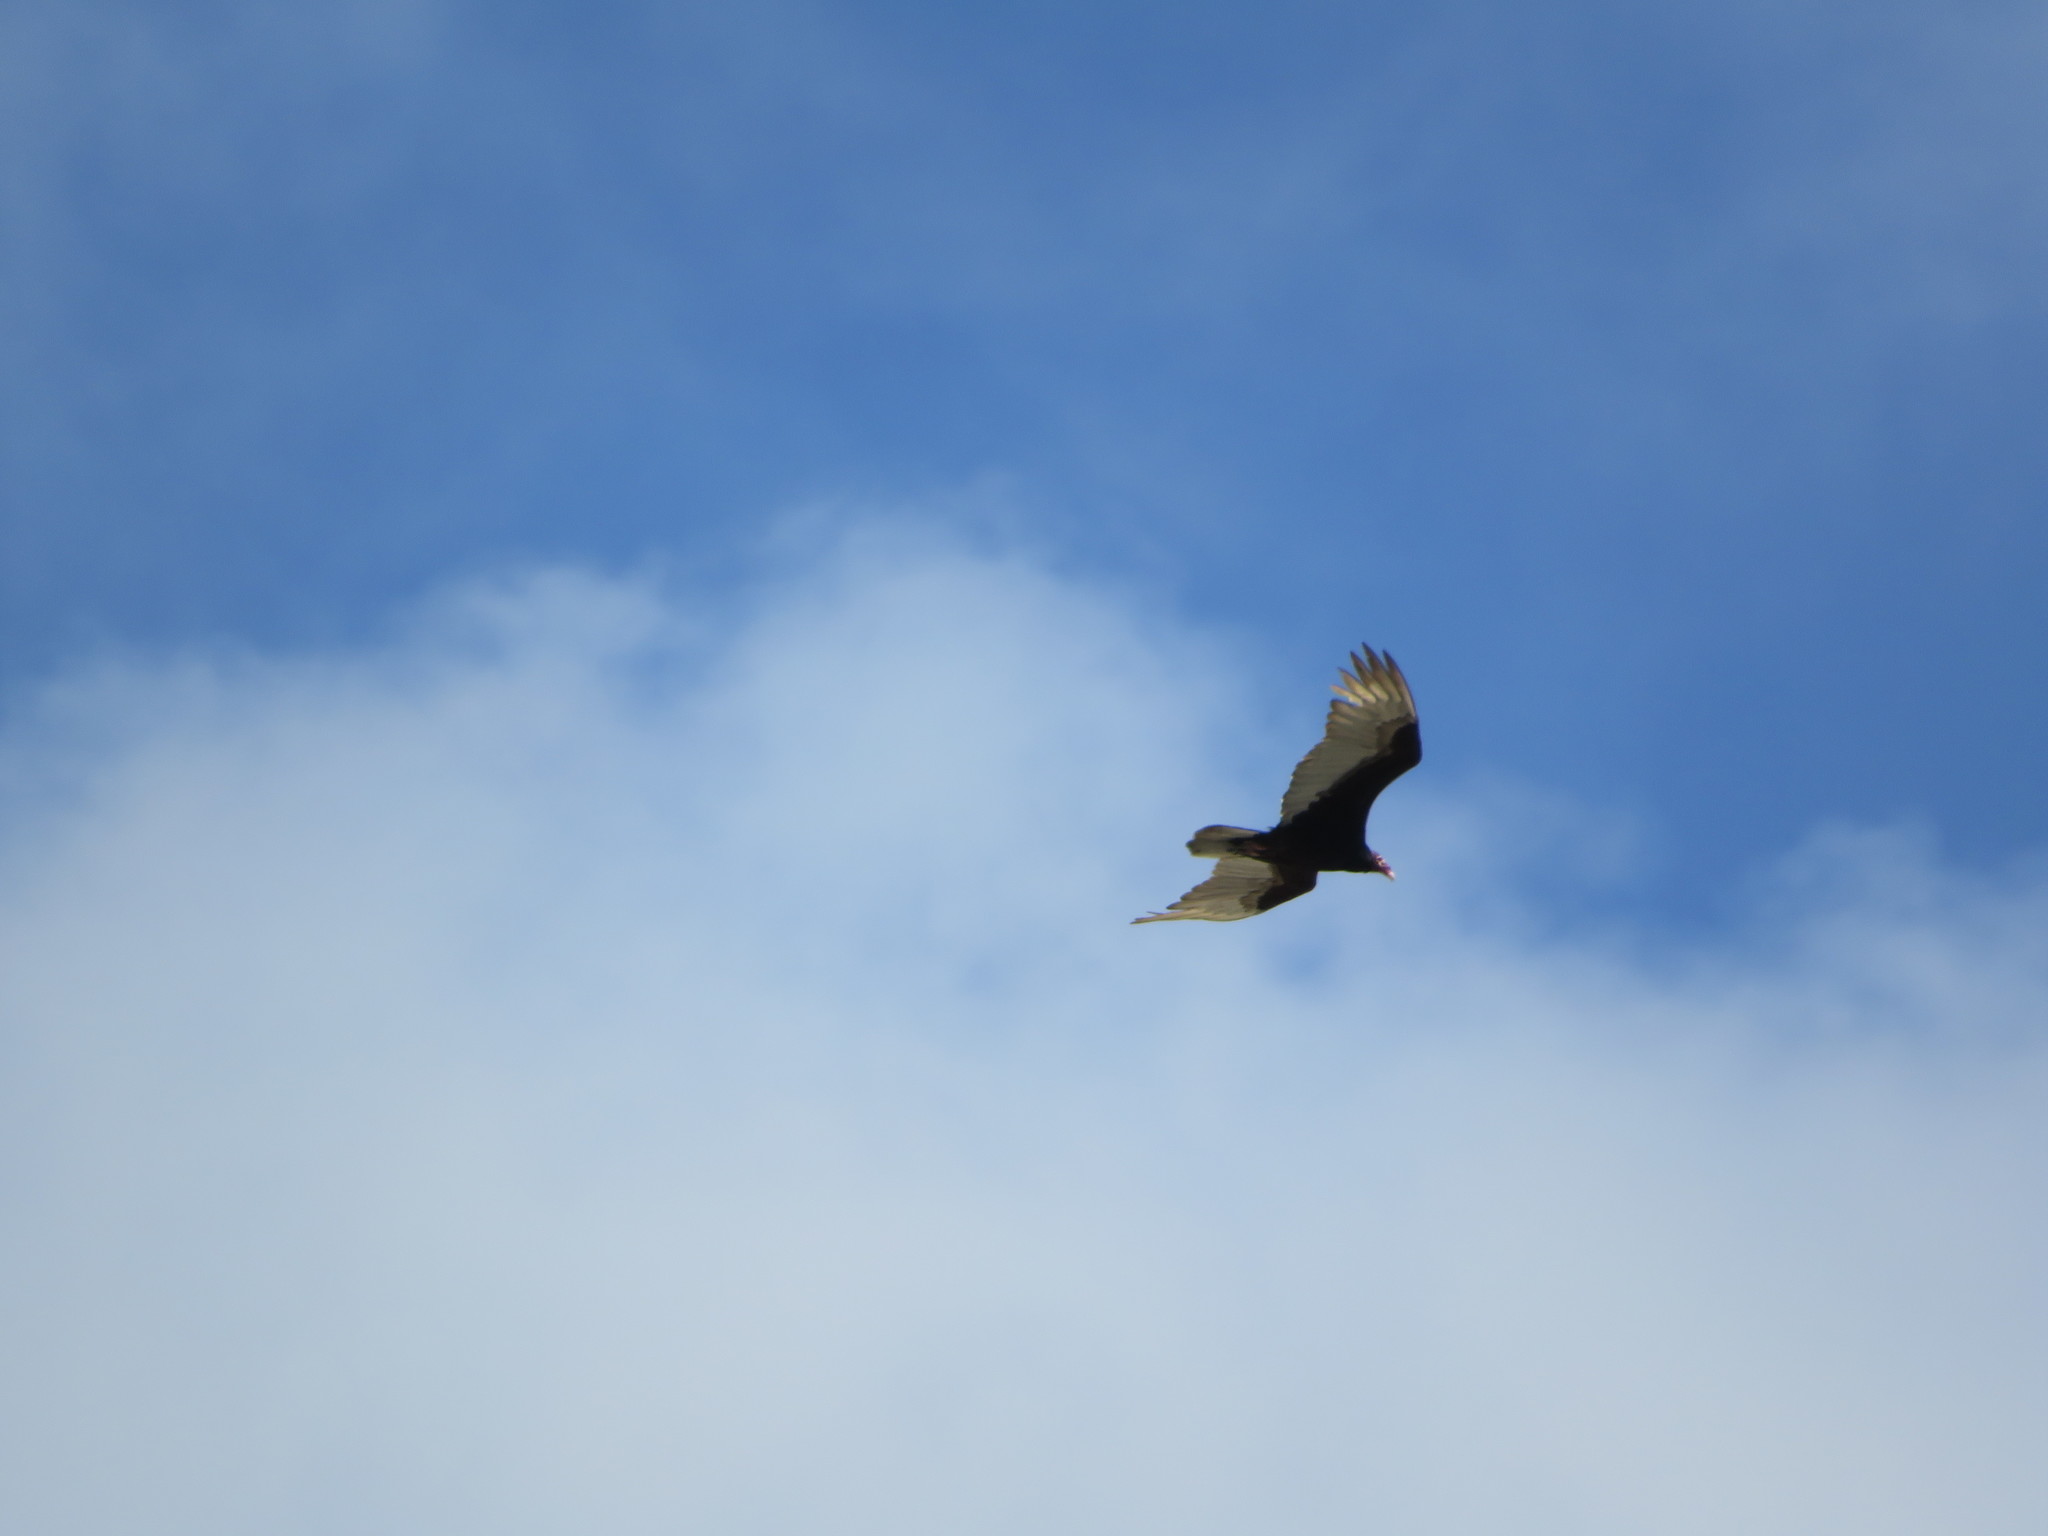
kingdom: Animalia
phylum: Chordata
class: Aves
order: Accipitriformes
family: Cathartidae
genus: Cathartes
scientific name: Cathartes aura
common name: Turkey vulture
